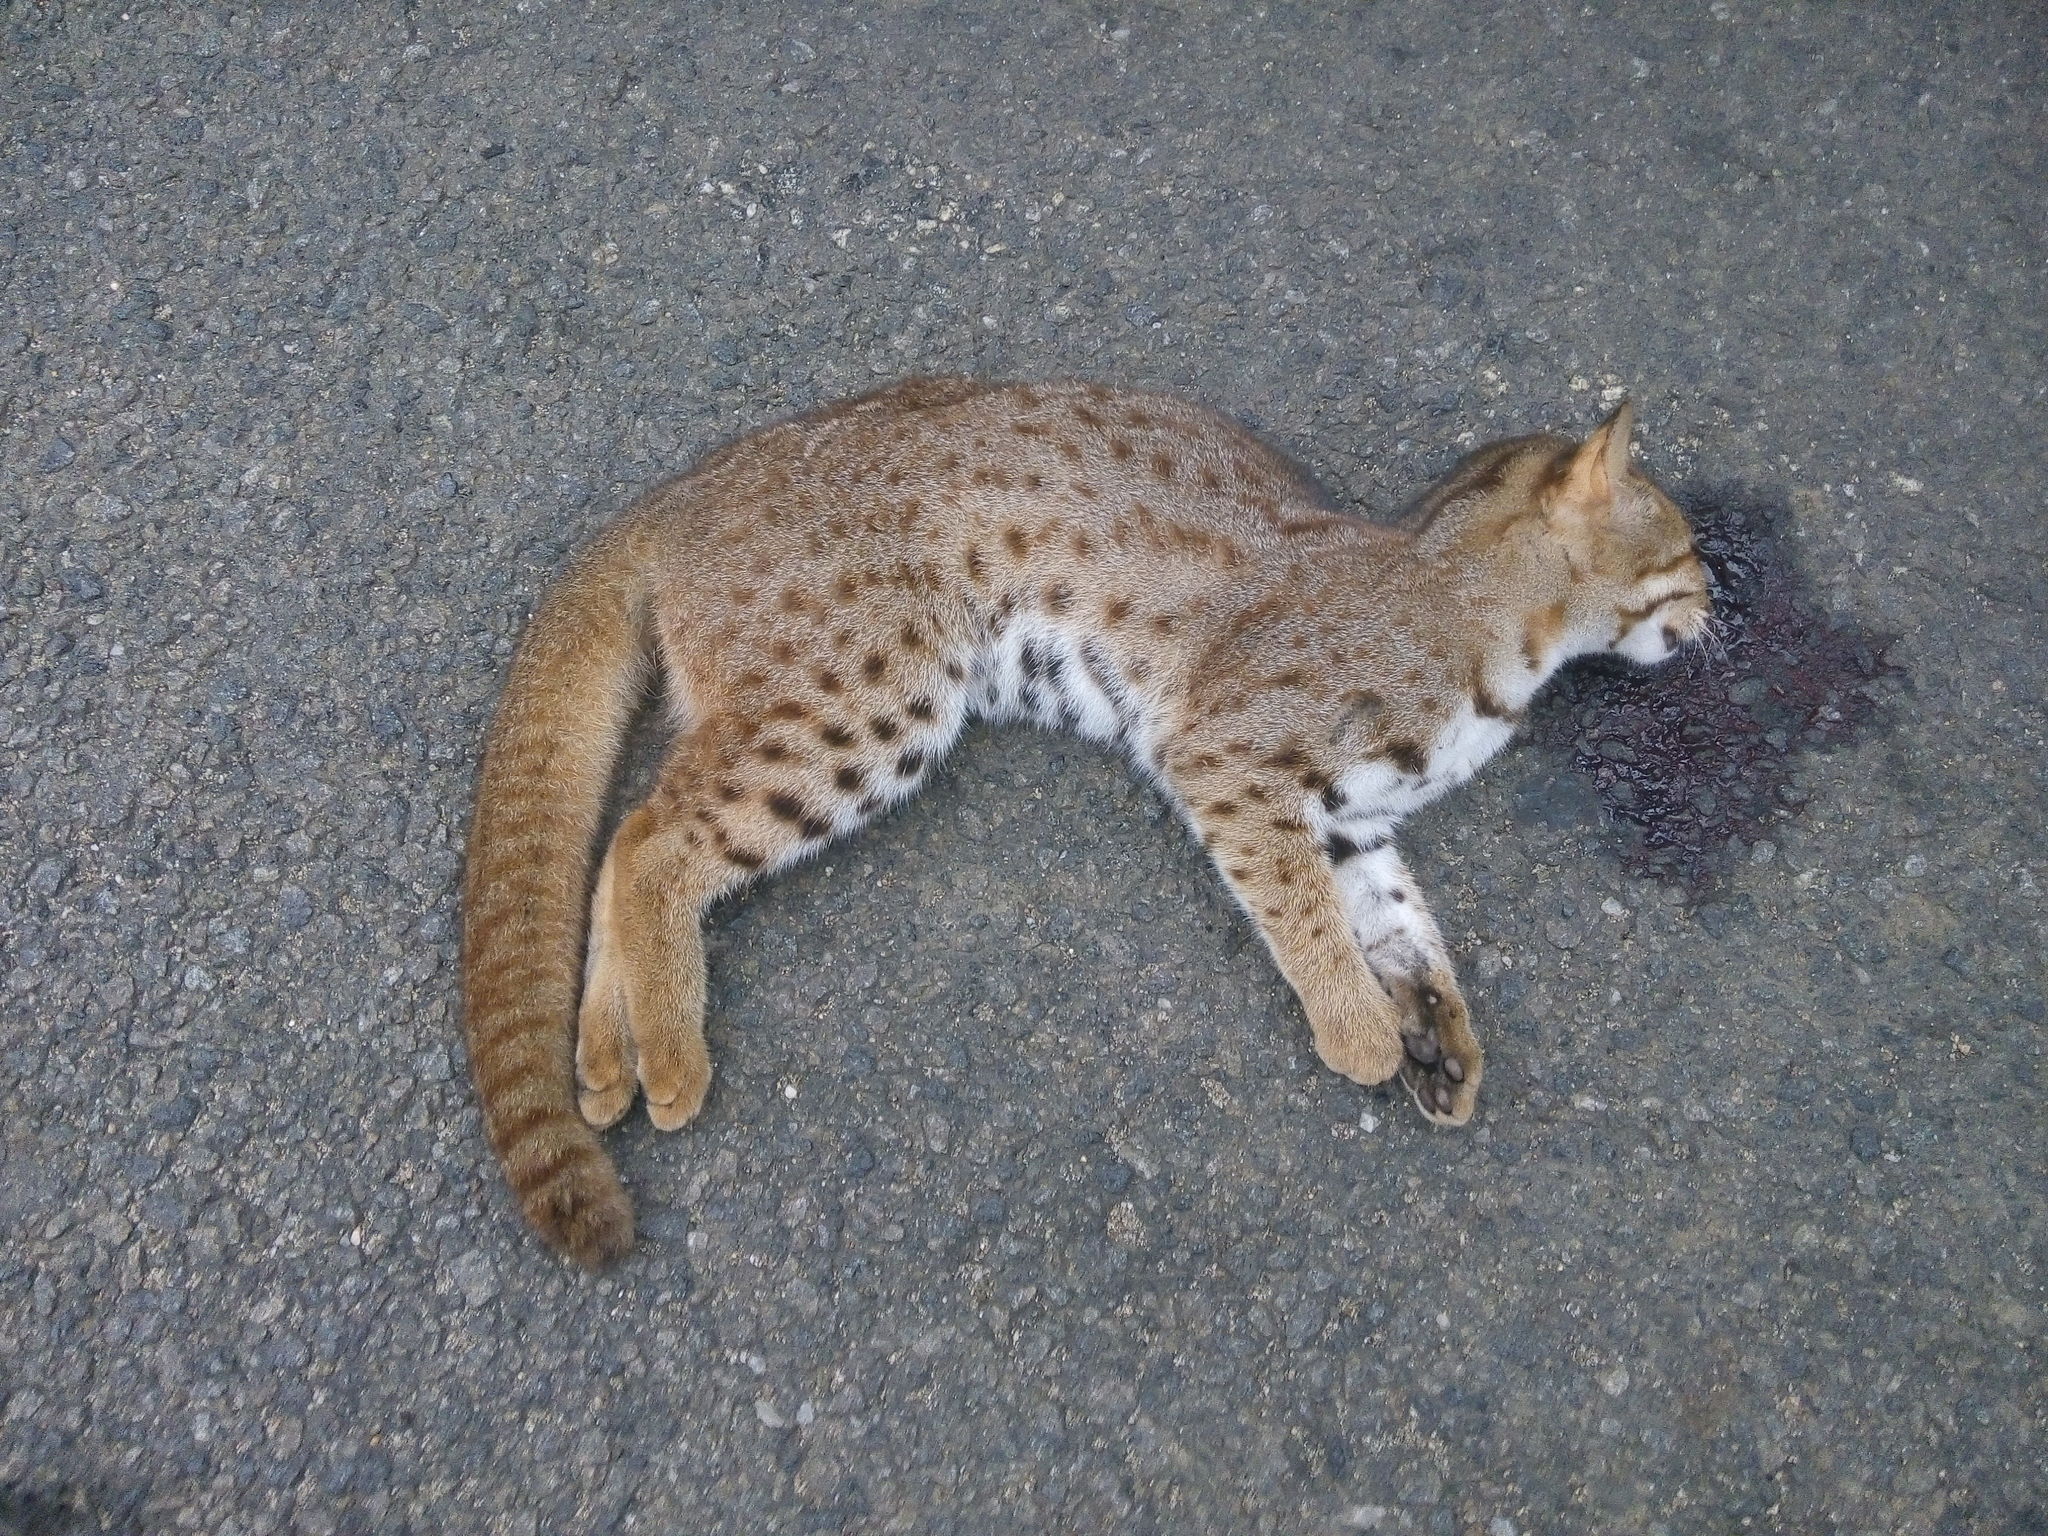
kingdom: Animalia
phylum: Chordata
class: Mammalia
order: Carnivora
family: Felidae
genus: Prionailurus
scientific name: Prionailurus rubiginosus
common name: Rusty-spotted cat
